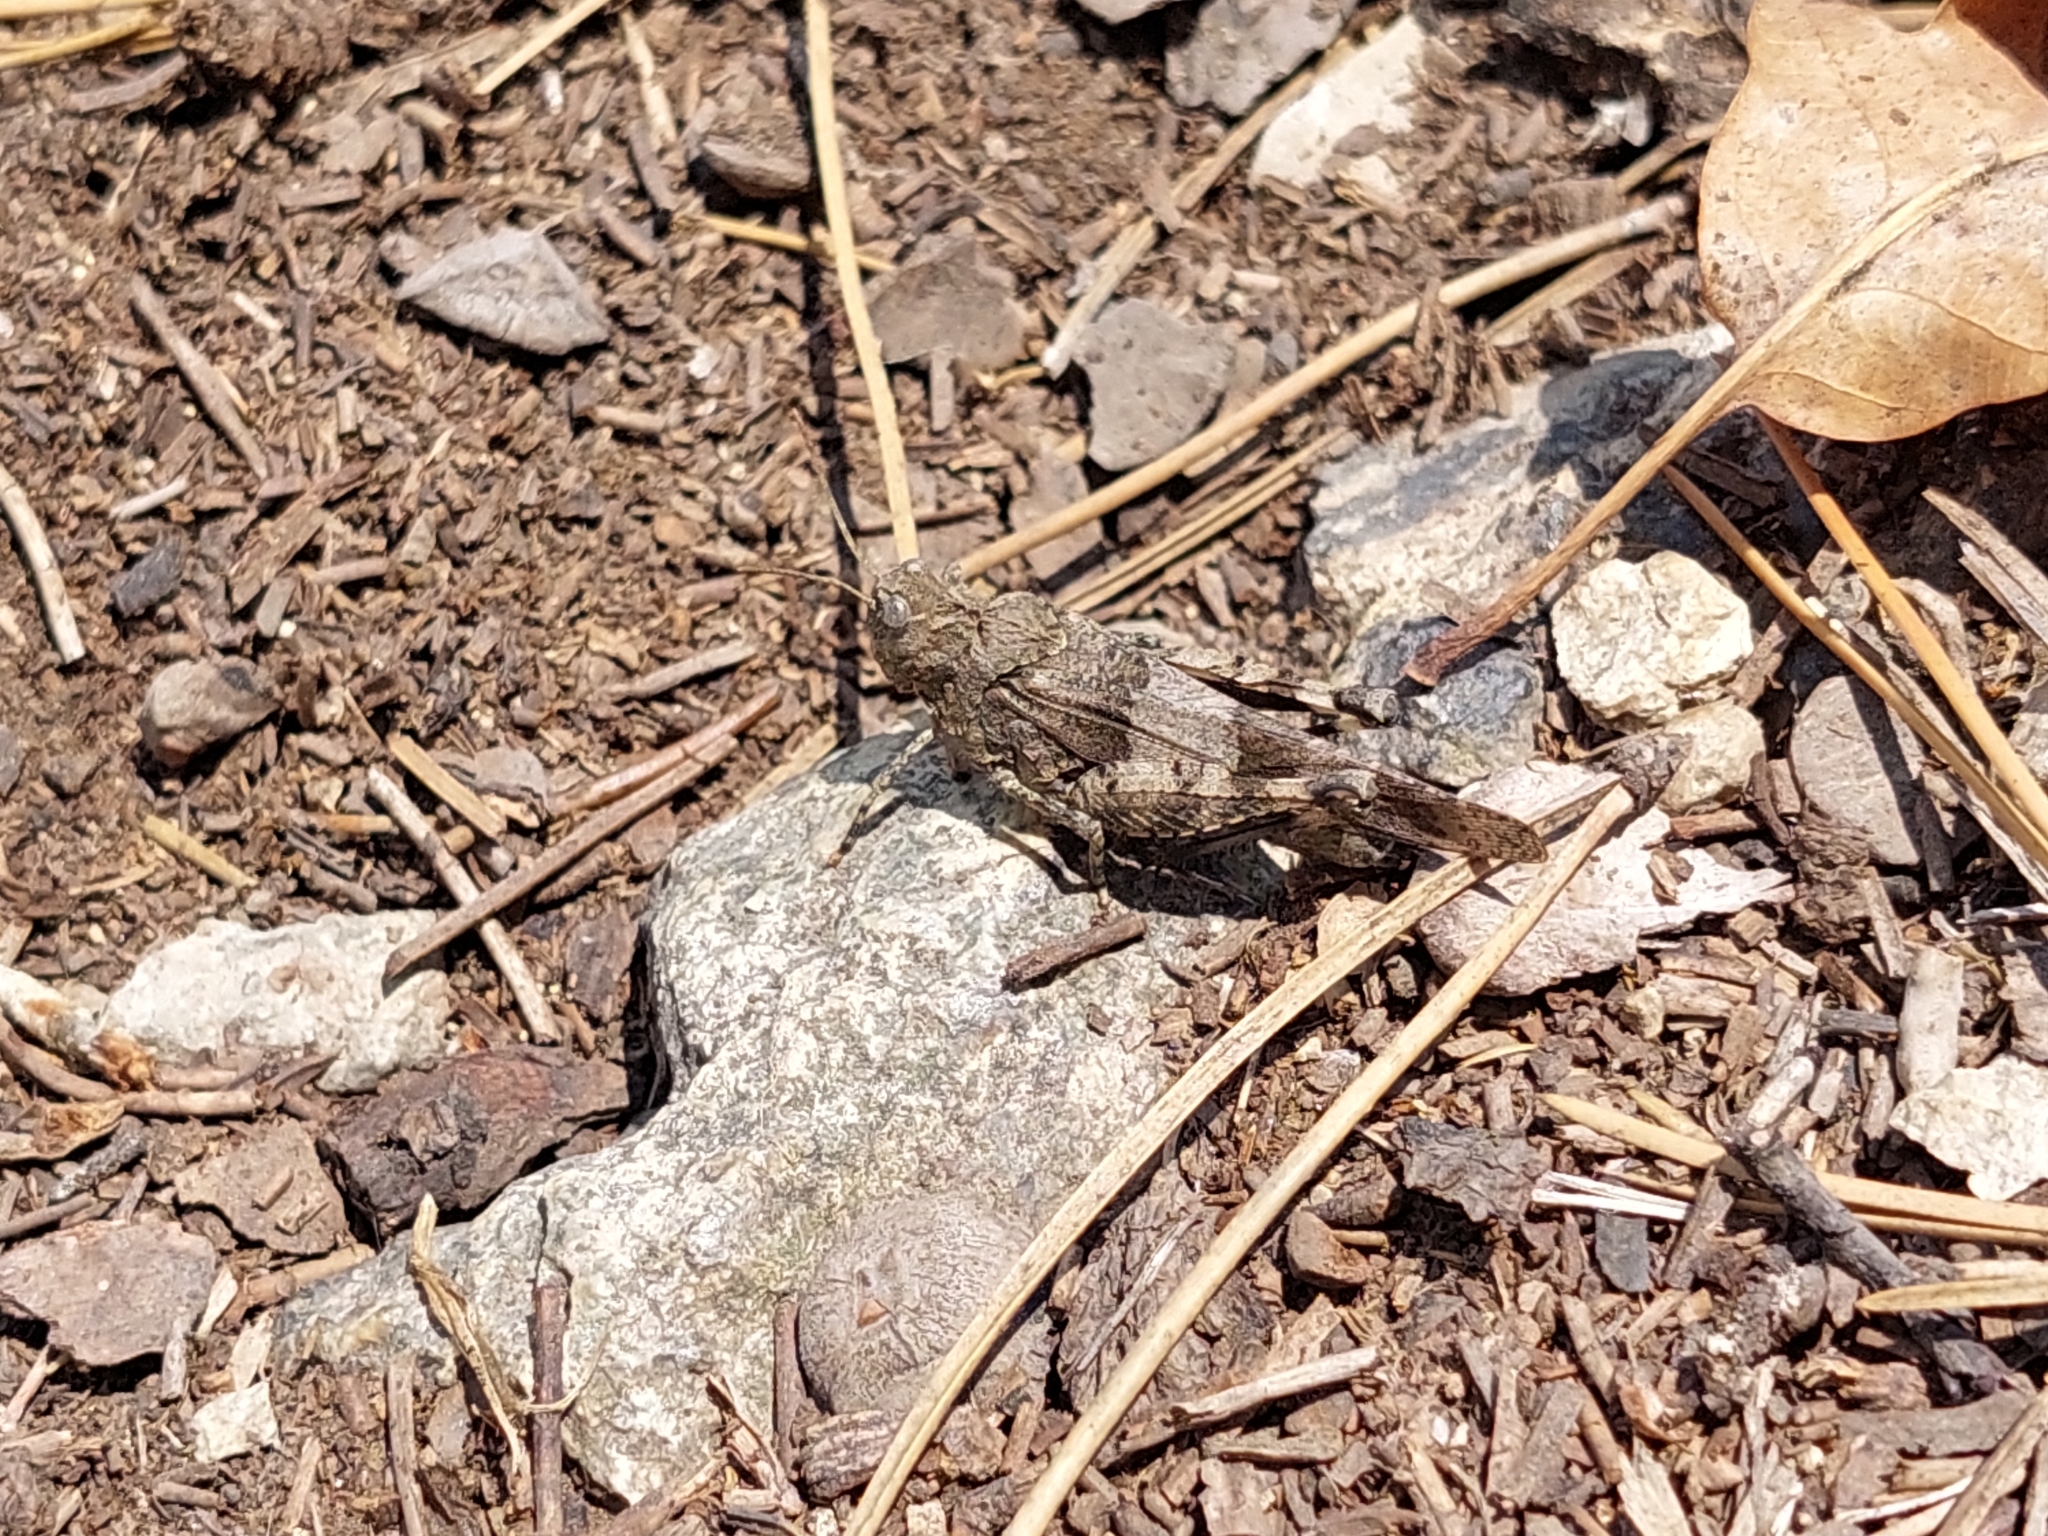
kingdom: Animalia
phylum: Arthropoda
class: Insecta
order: Orthoptera
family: Acrididae
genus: Oedipoda
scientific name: Oedipoda caerulescens
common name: Blue-winged grasshopper
